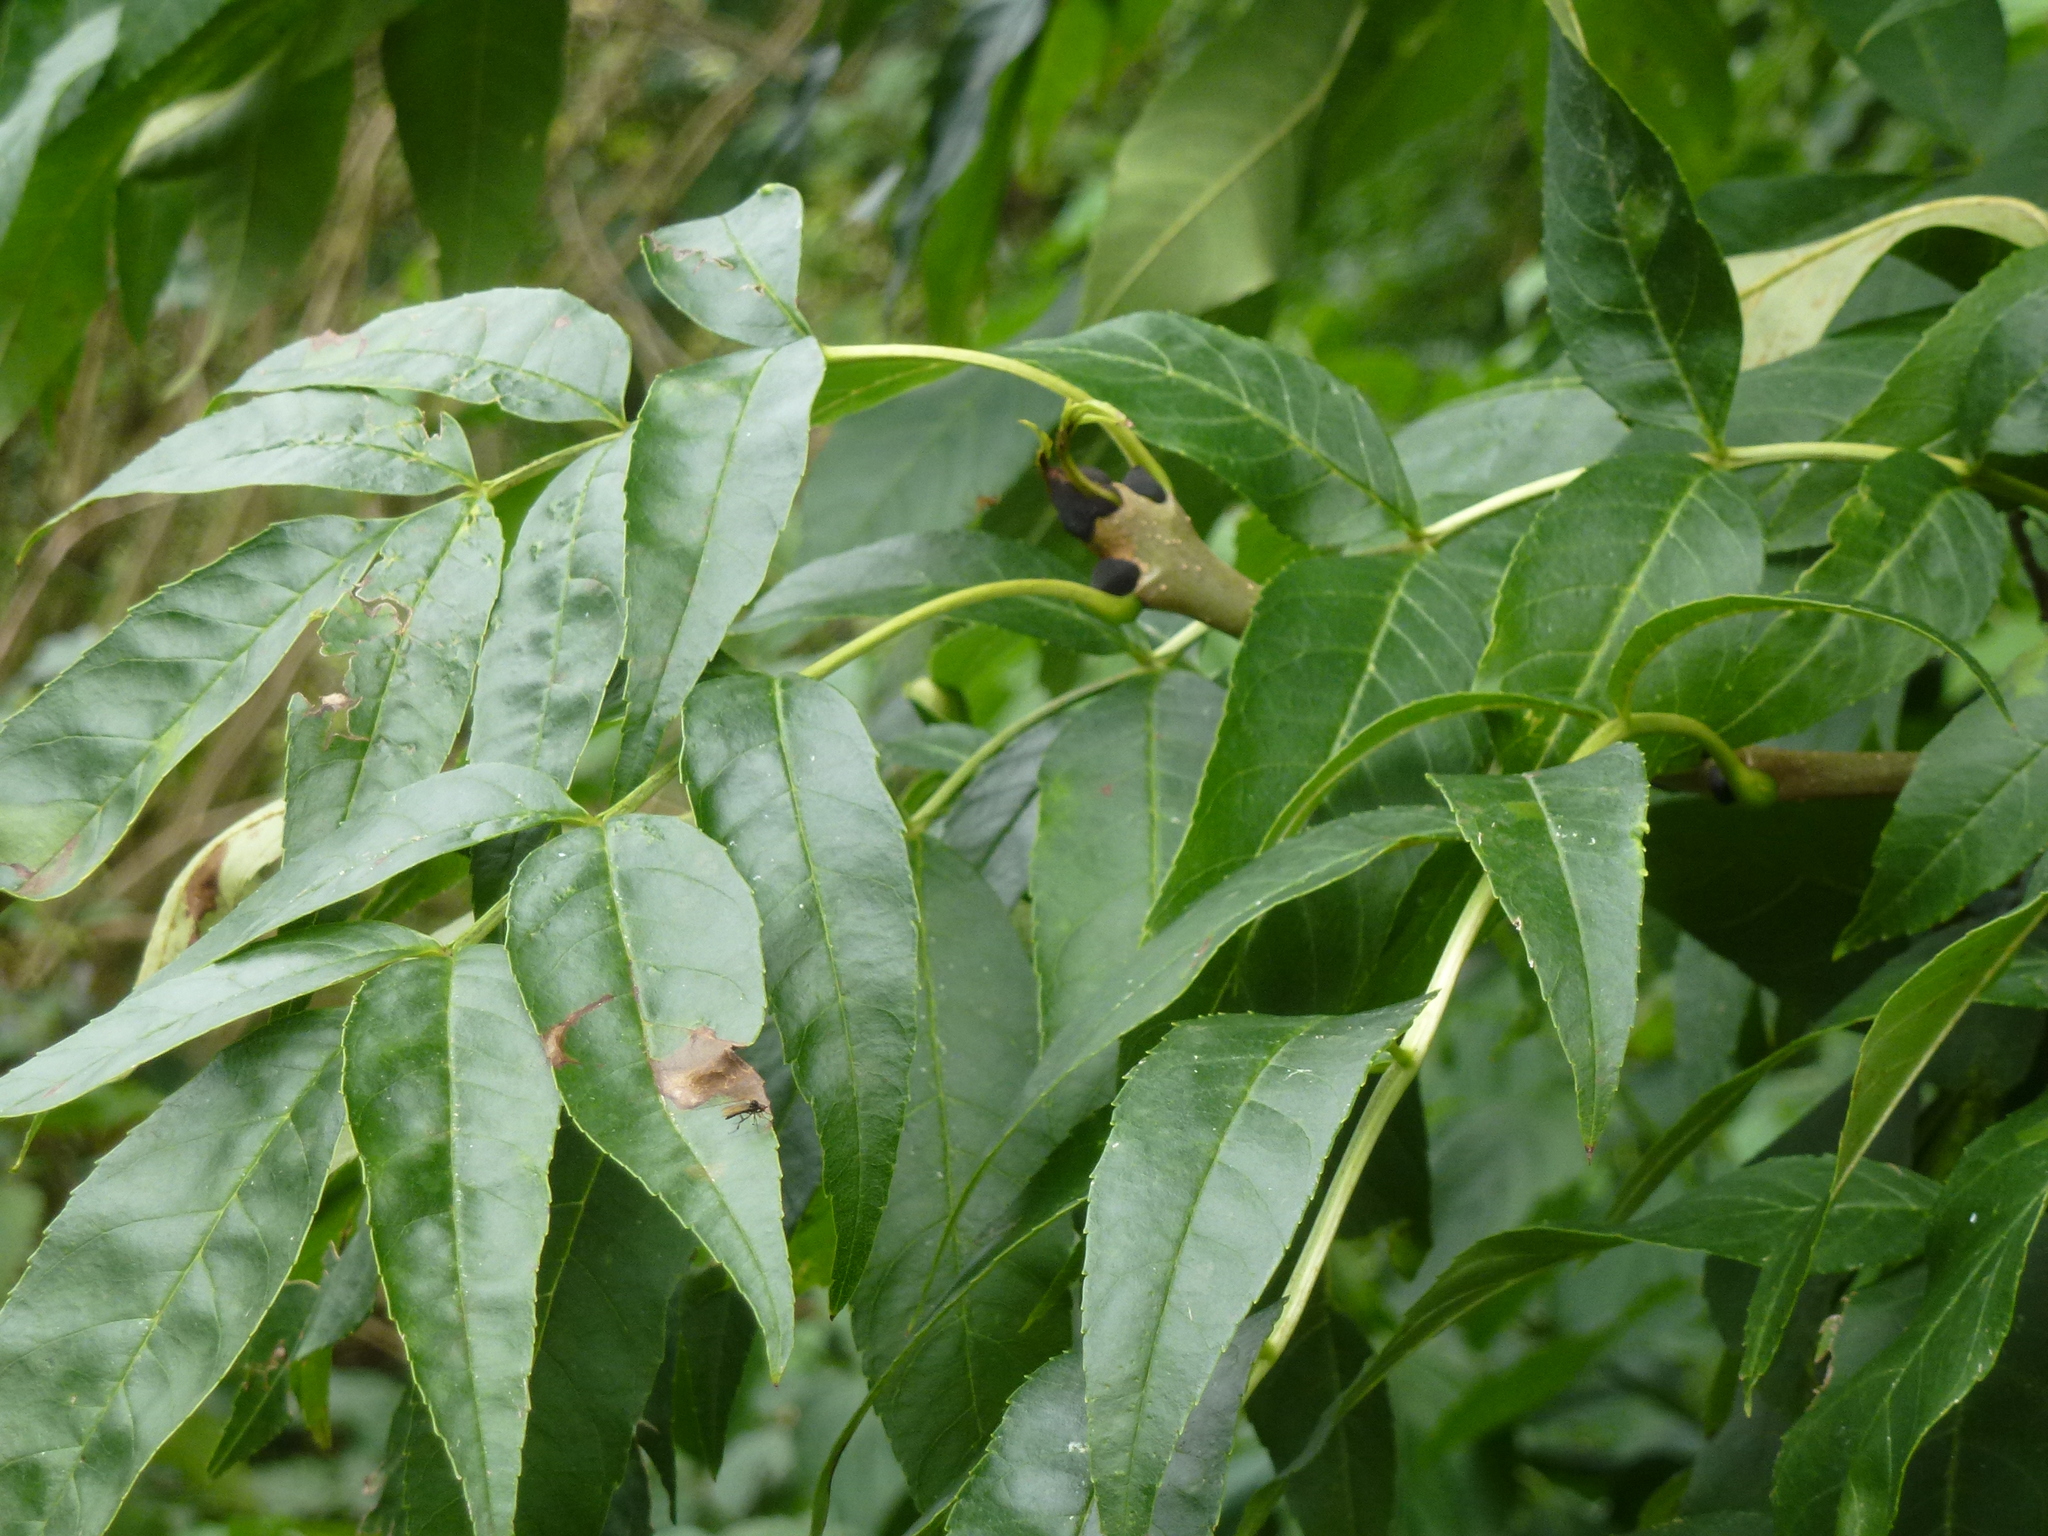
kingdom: Plantae
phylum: Tracheophyta
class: Magnoliopsida
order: Lamiales
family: Oleaceae
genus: Fraxinus
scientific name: Fraxinus excelsior
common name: European ash
